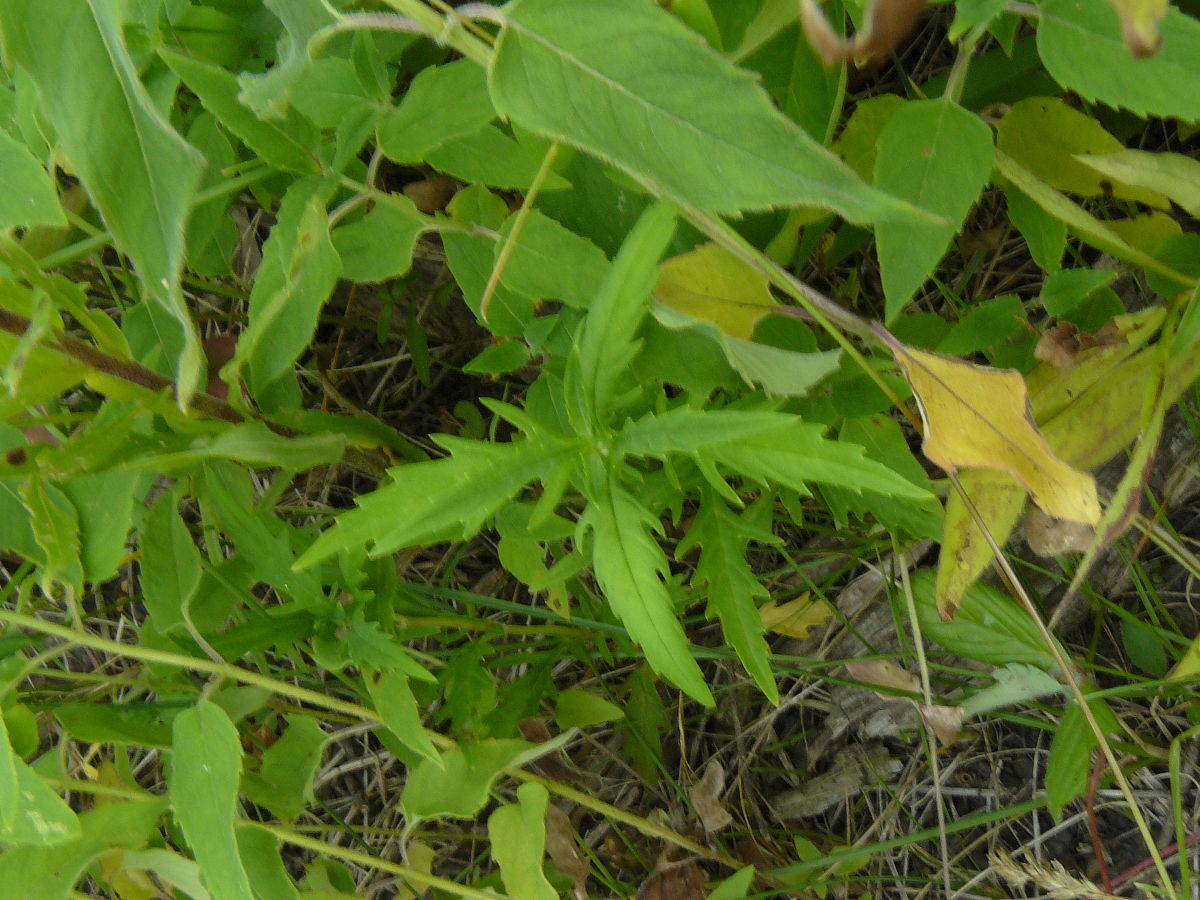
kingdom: Plantae
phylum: Tracheophyta
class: Magnoliopsida
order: Lamiales
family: Lamiaceae
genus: Lycopus
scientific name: Lycopus americanus
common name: American bugleweed
